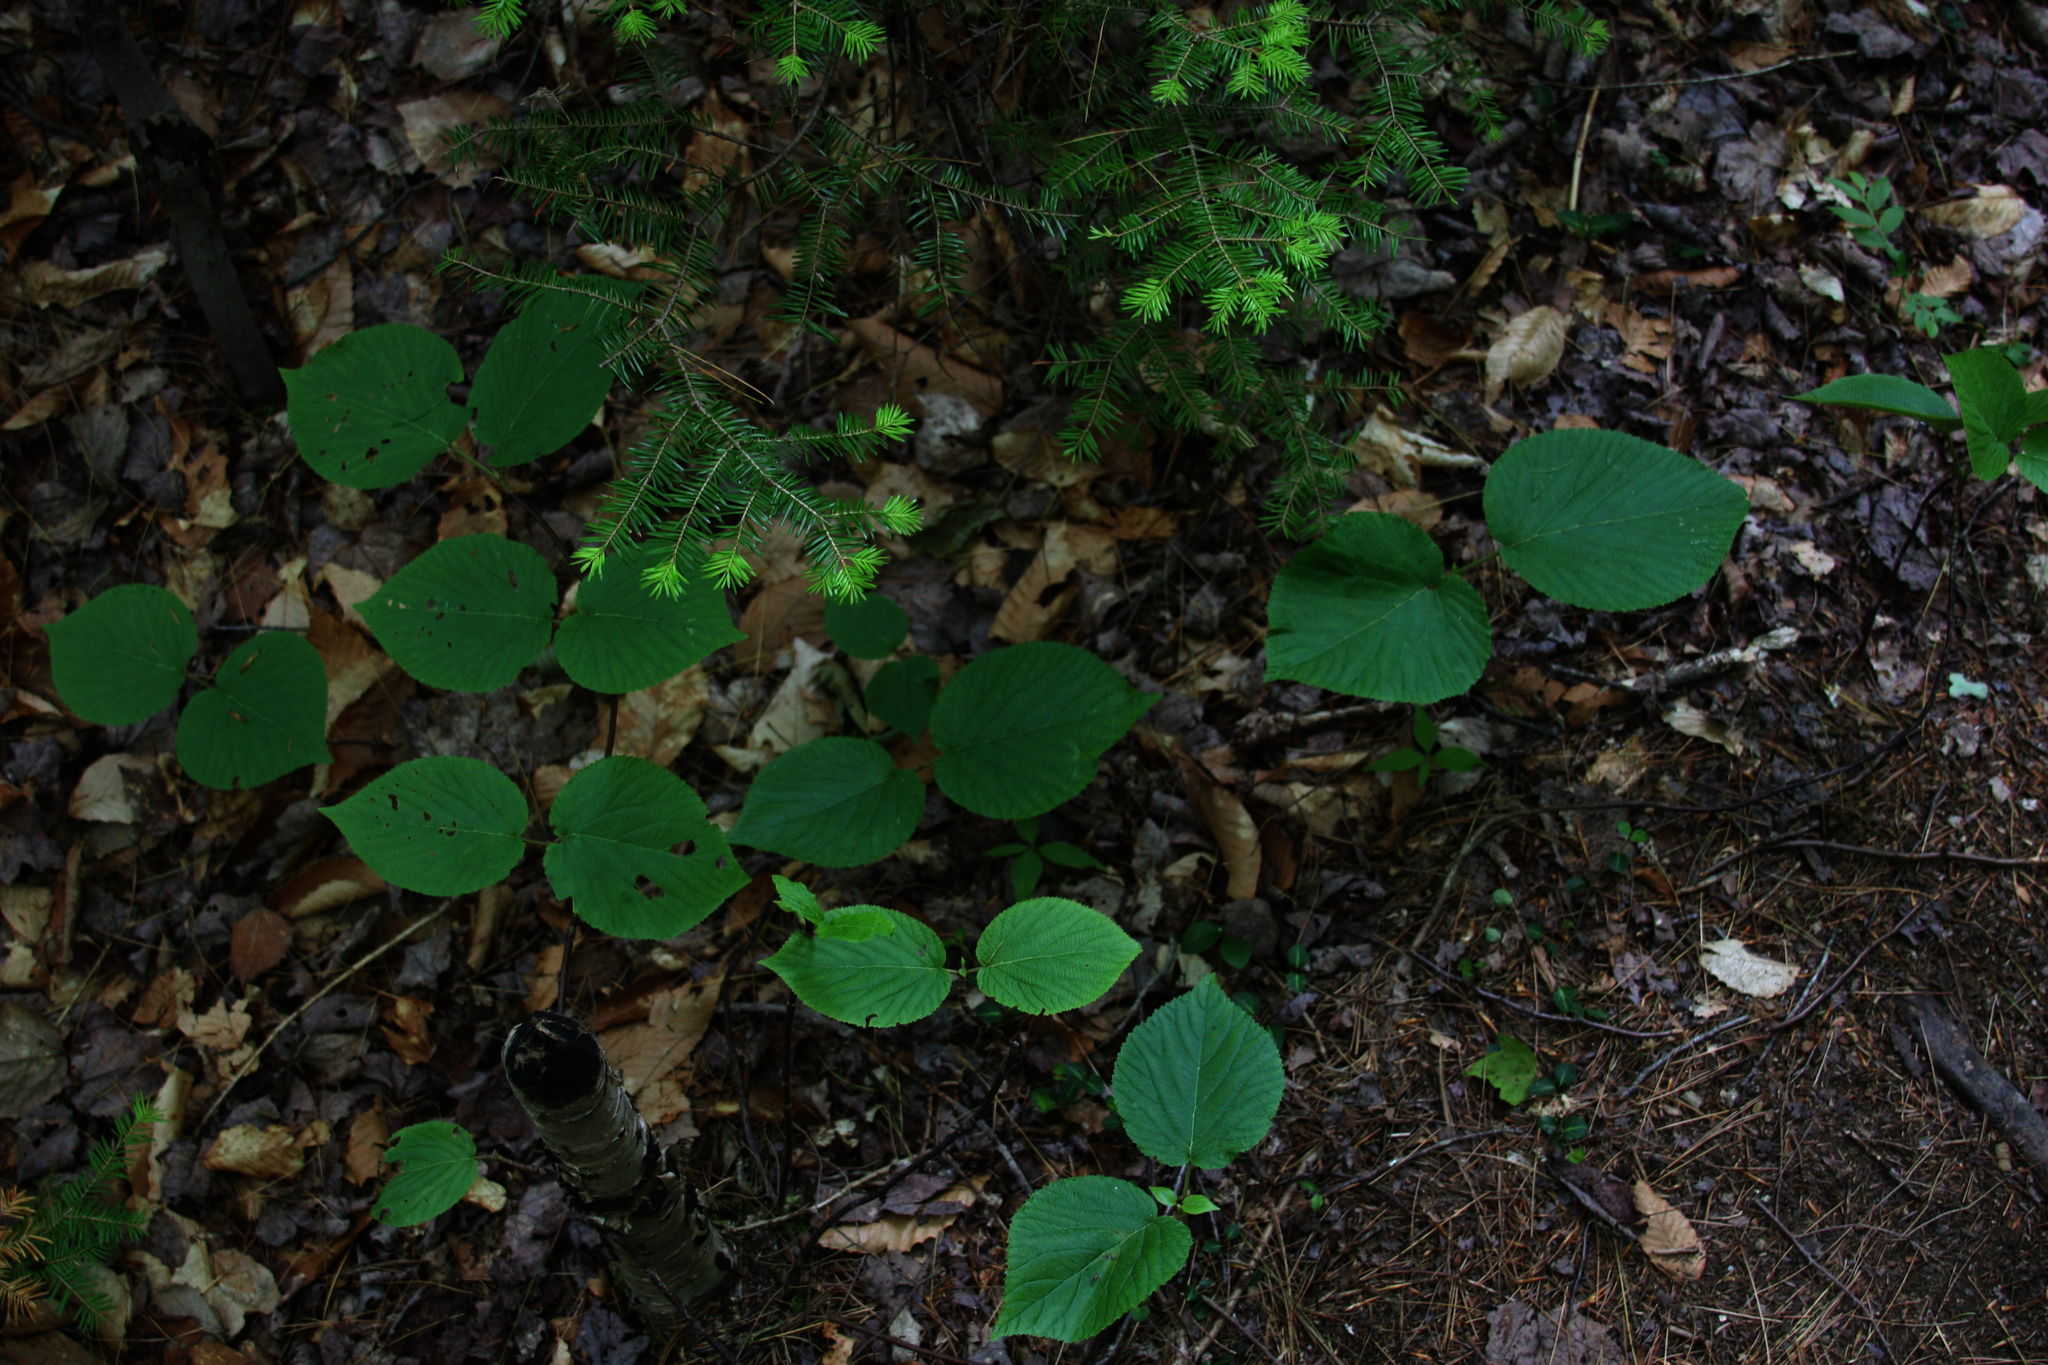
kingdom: Plantae
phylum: Tracheophyta
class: Magnoliopsida
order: Dipsacales
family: Viburnaceae
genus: Viburnum
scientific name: Viburnum lantanoides
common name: Hobblebush
